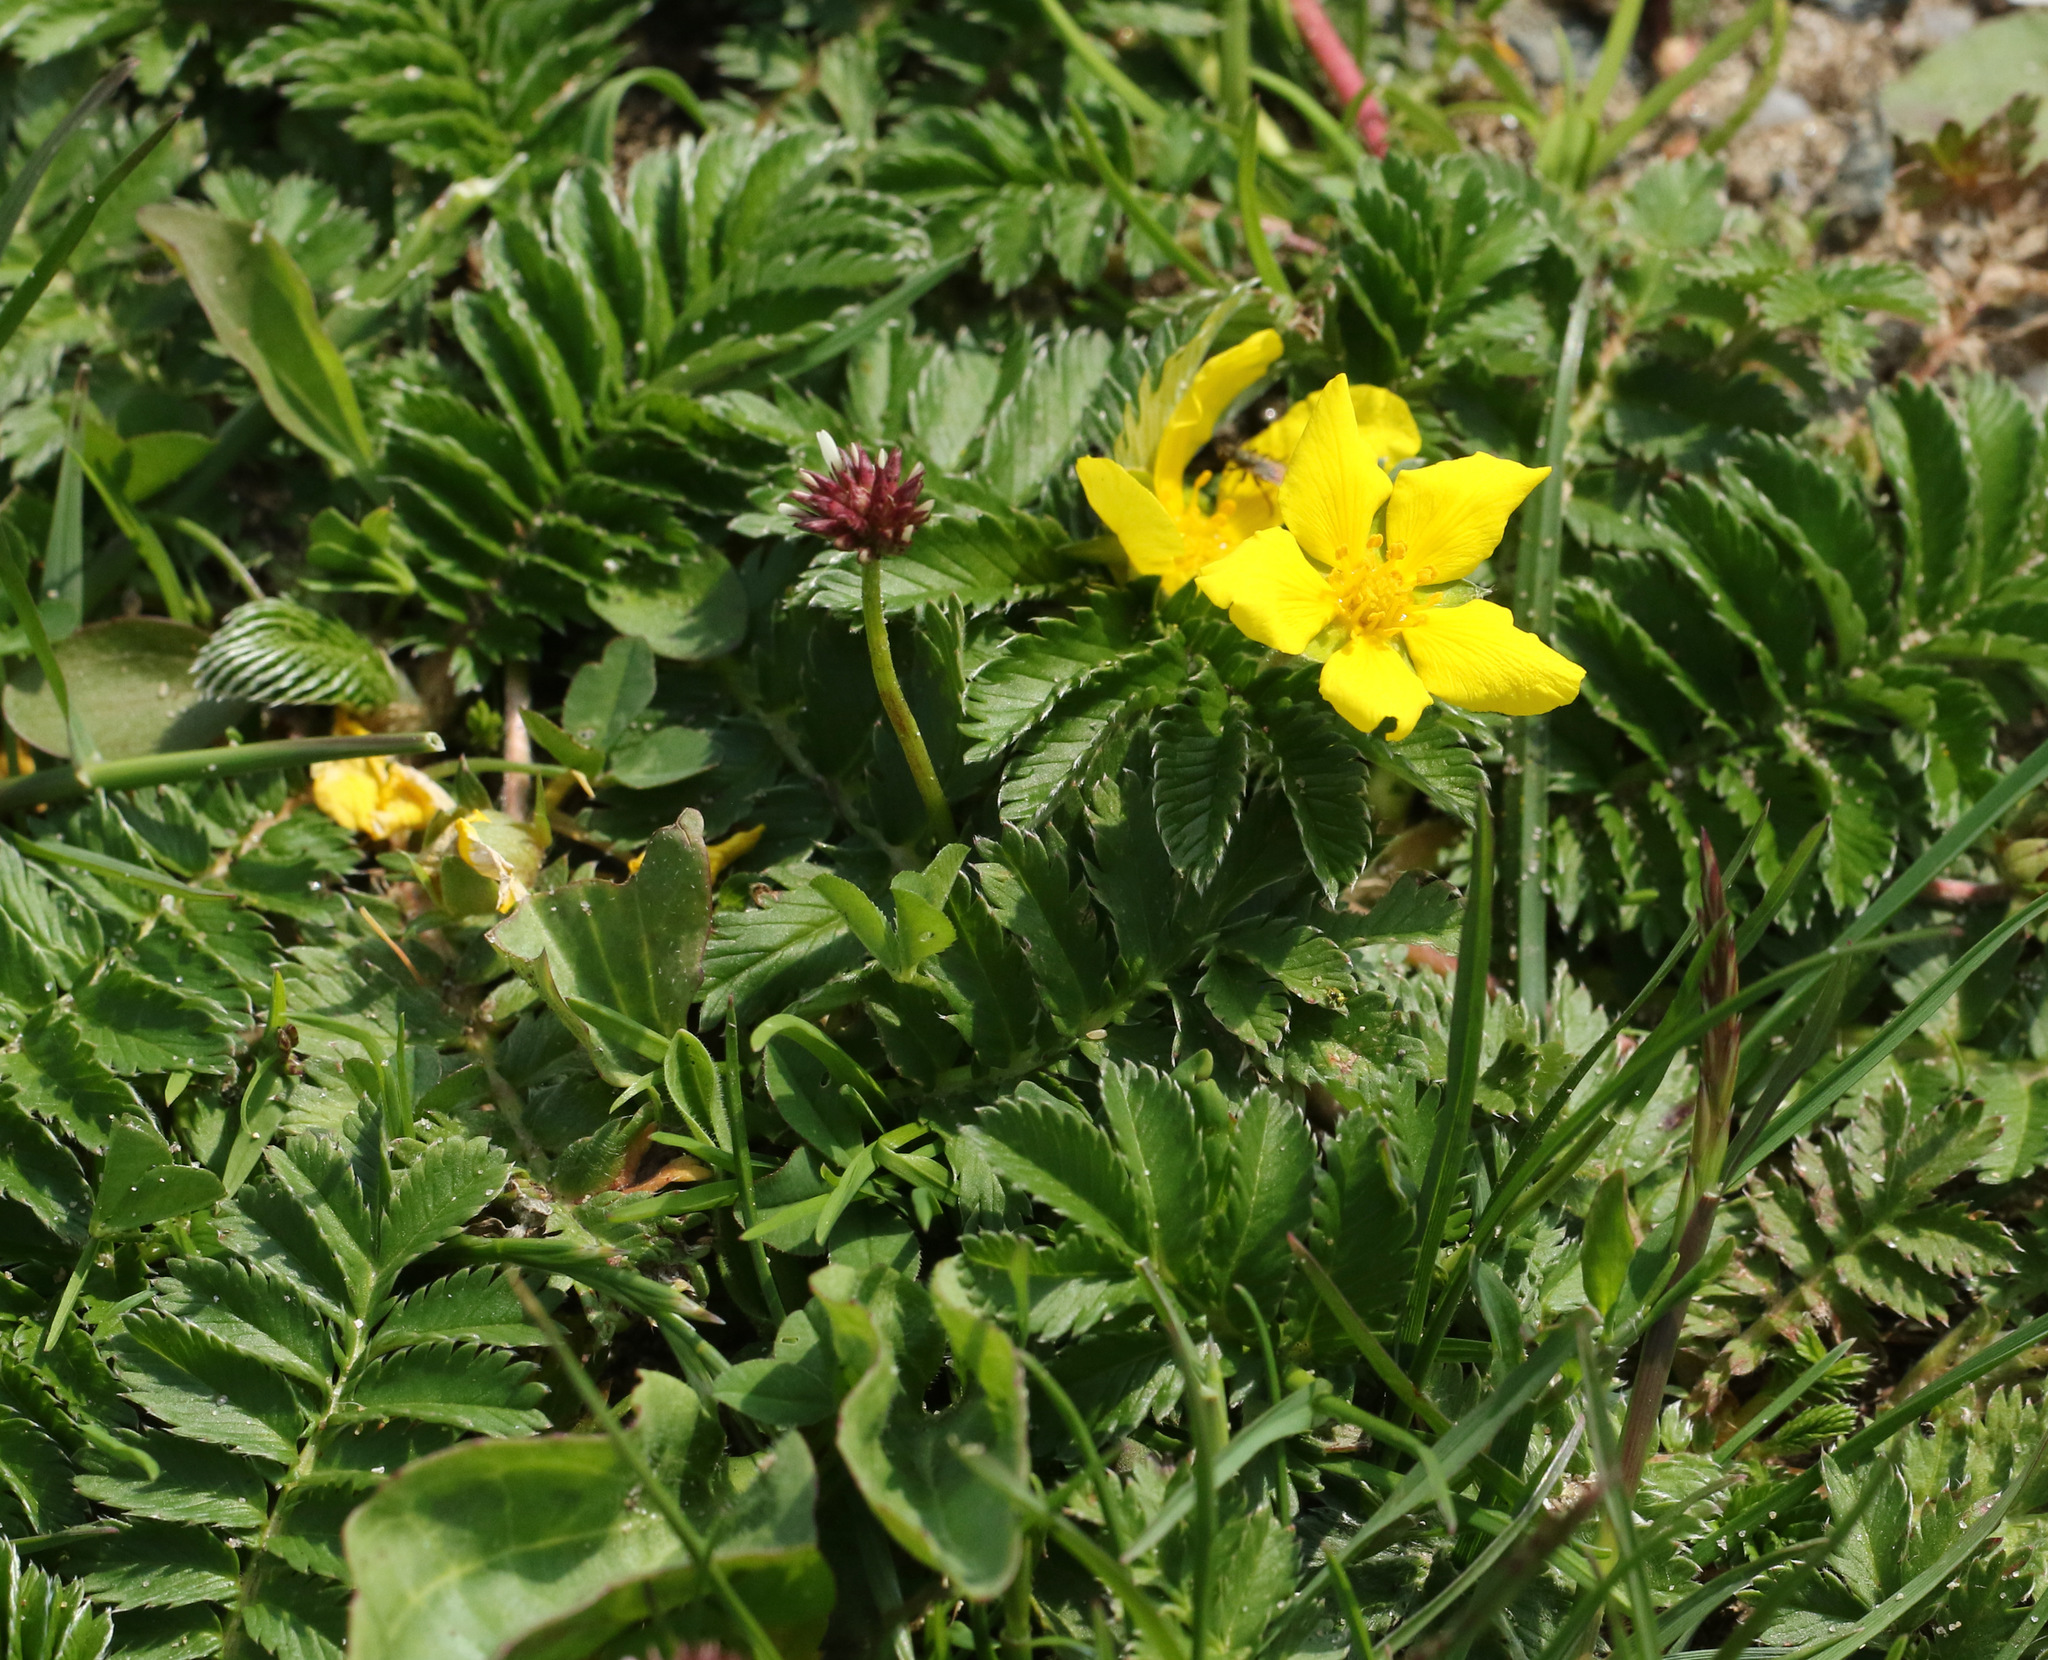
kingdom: Plantae
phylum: Tracheophyta
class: Magnoliopsida
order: Rosales
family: Rosaceae
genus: Argentina
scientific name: Argentina anserina
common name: Common silverweed
